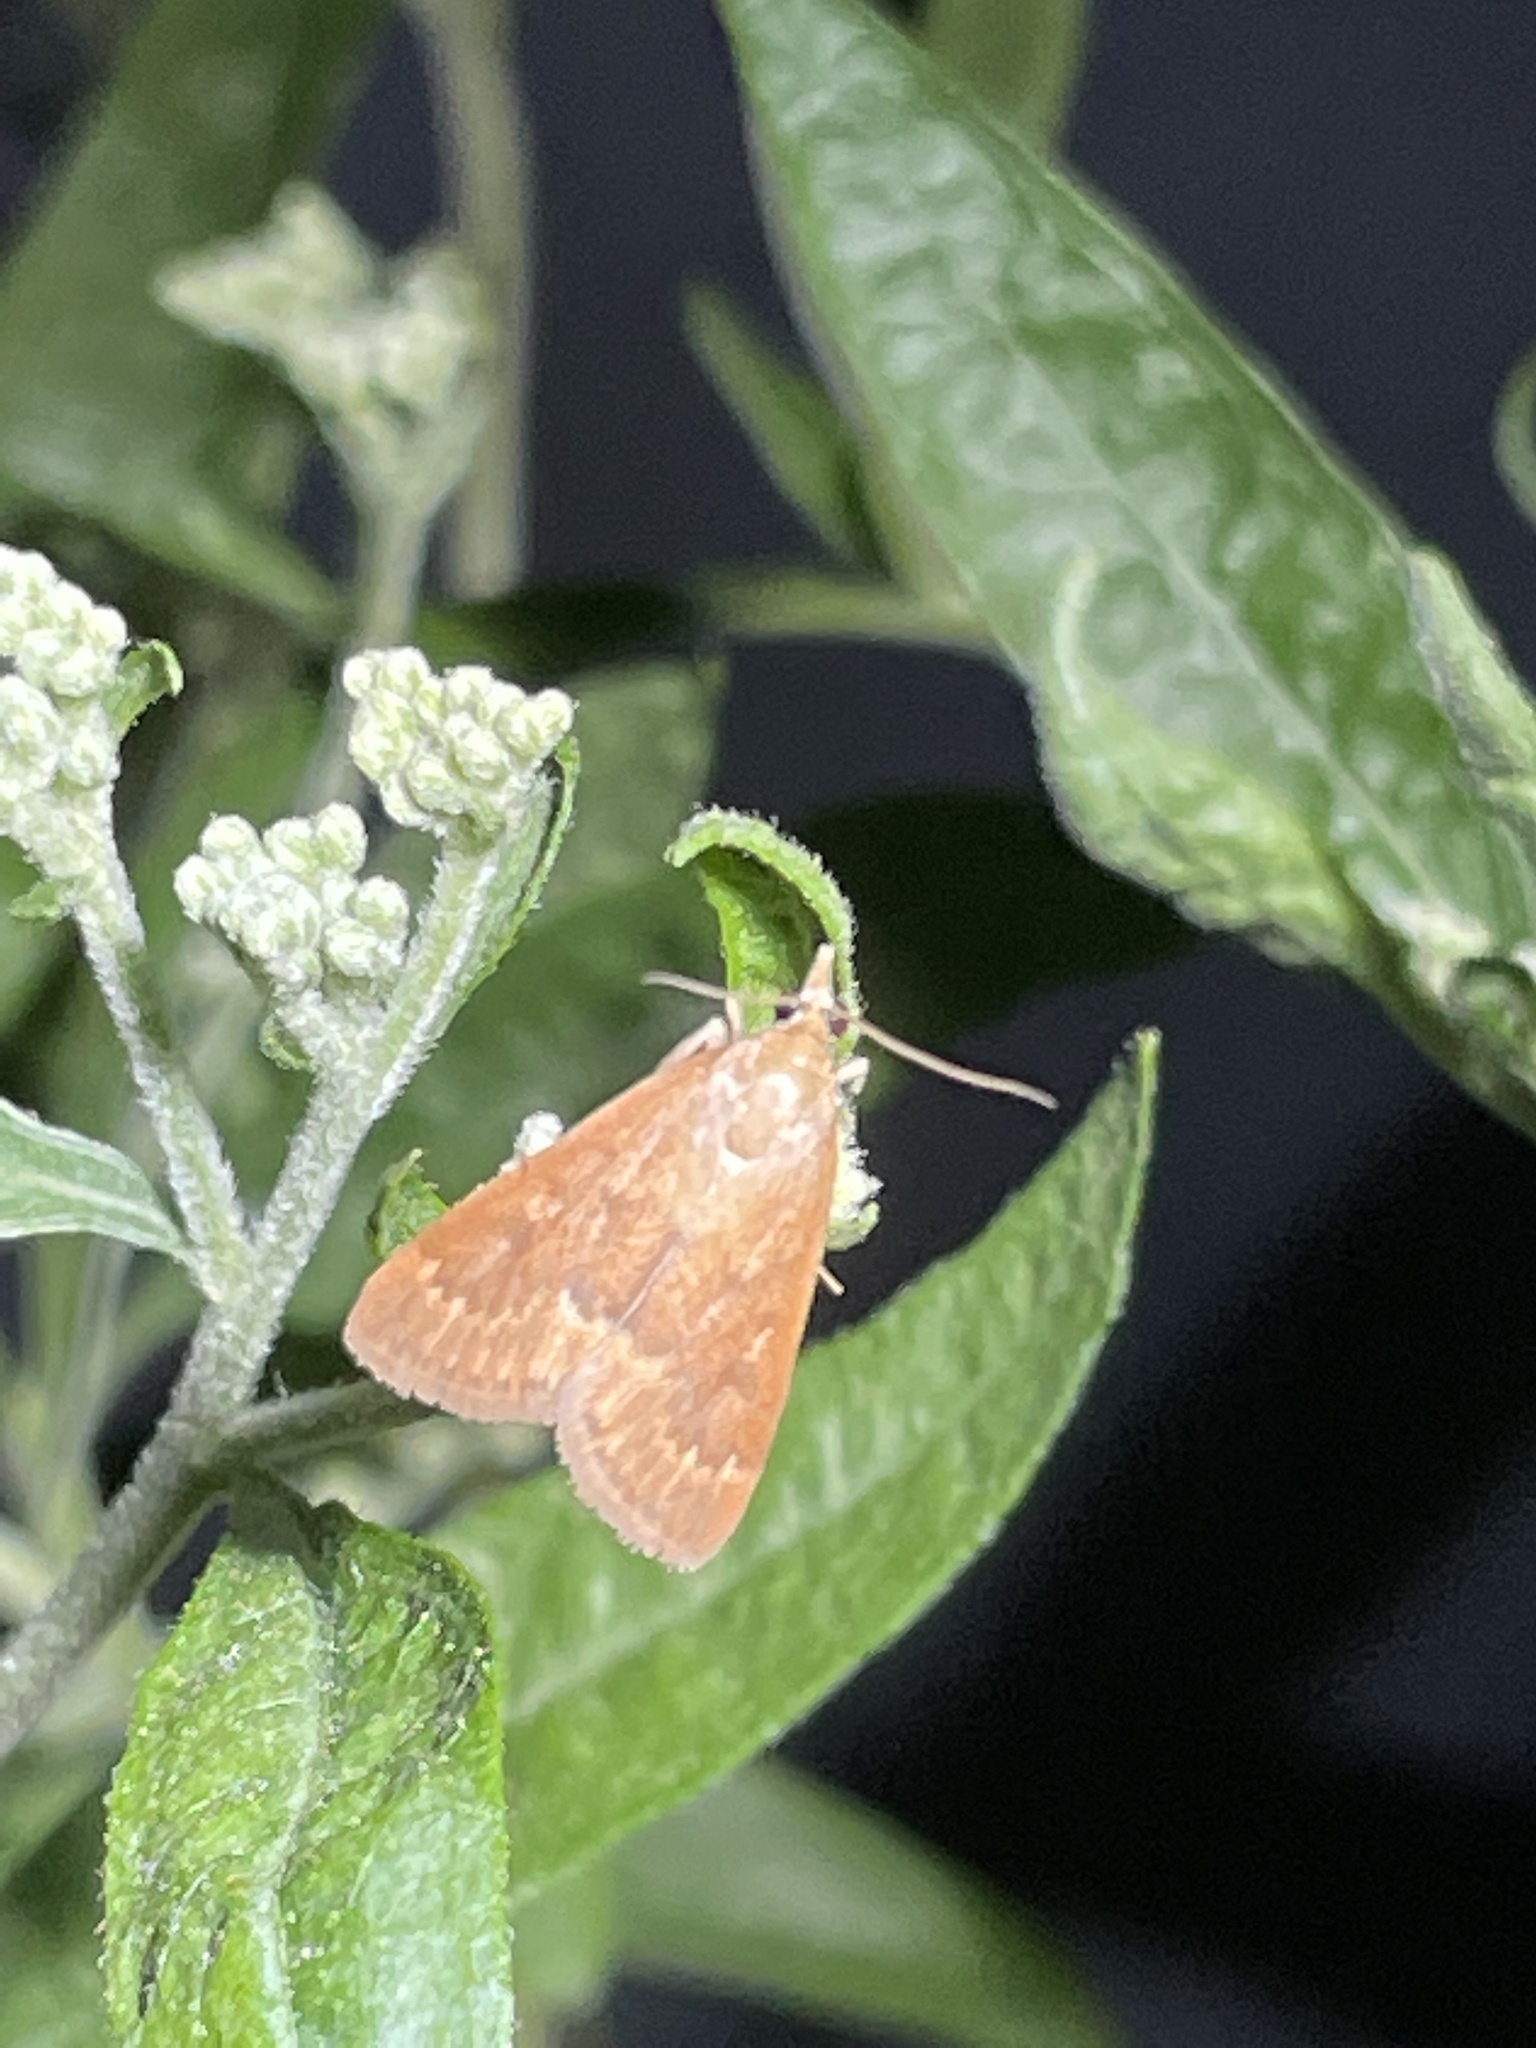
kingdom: Animalia
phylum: Arthropoda
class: Insecta
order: Lepidoptera
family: Crambidae
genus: Achyra
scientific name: Achyra rantalis
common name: Garden webworm
